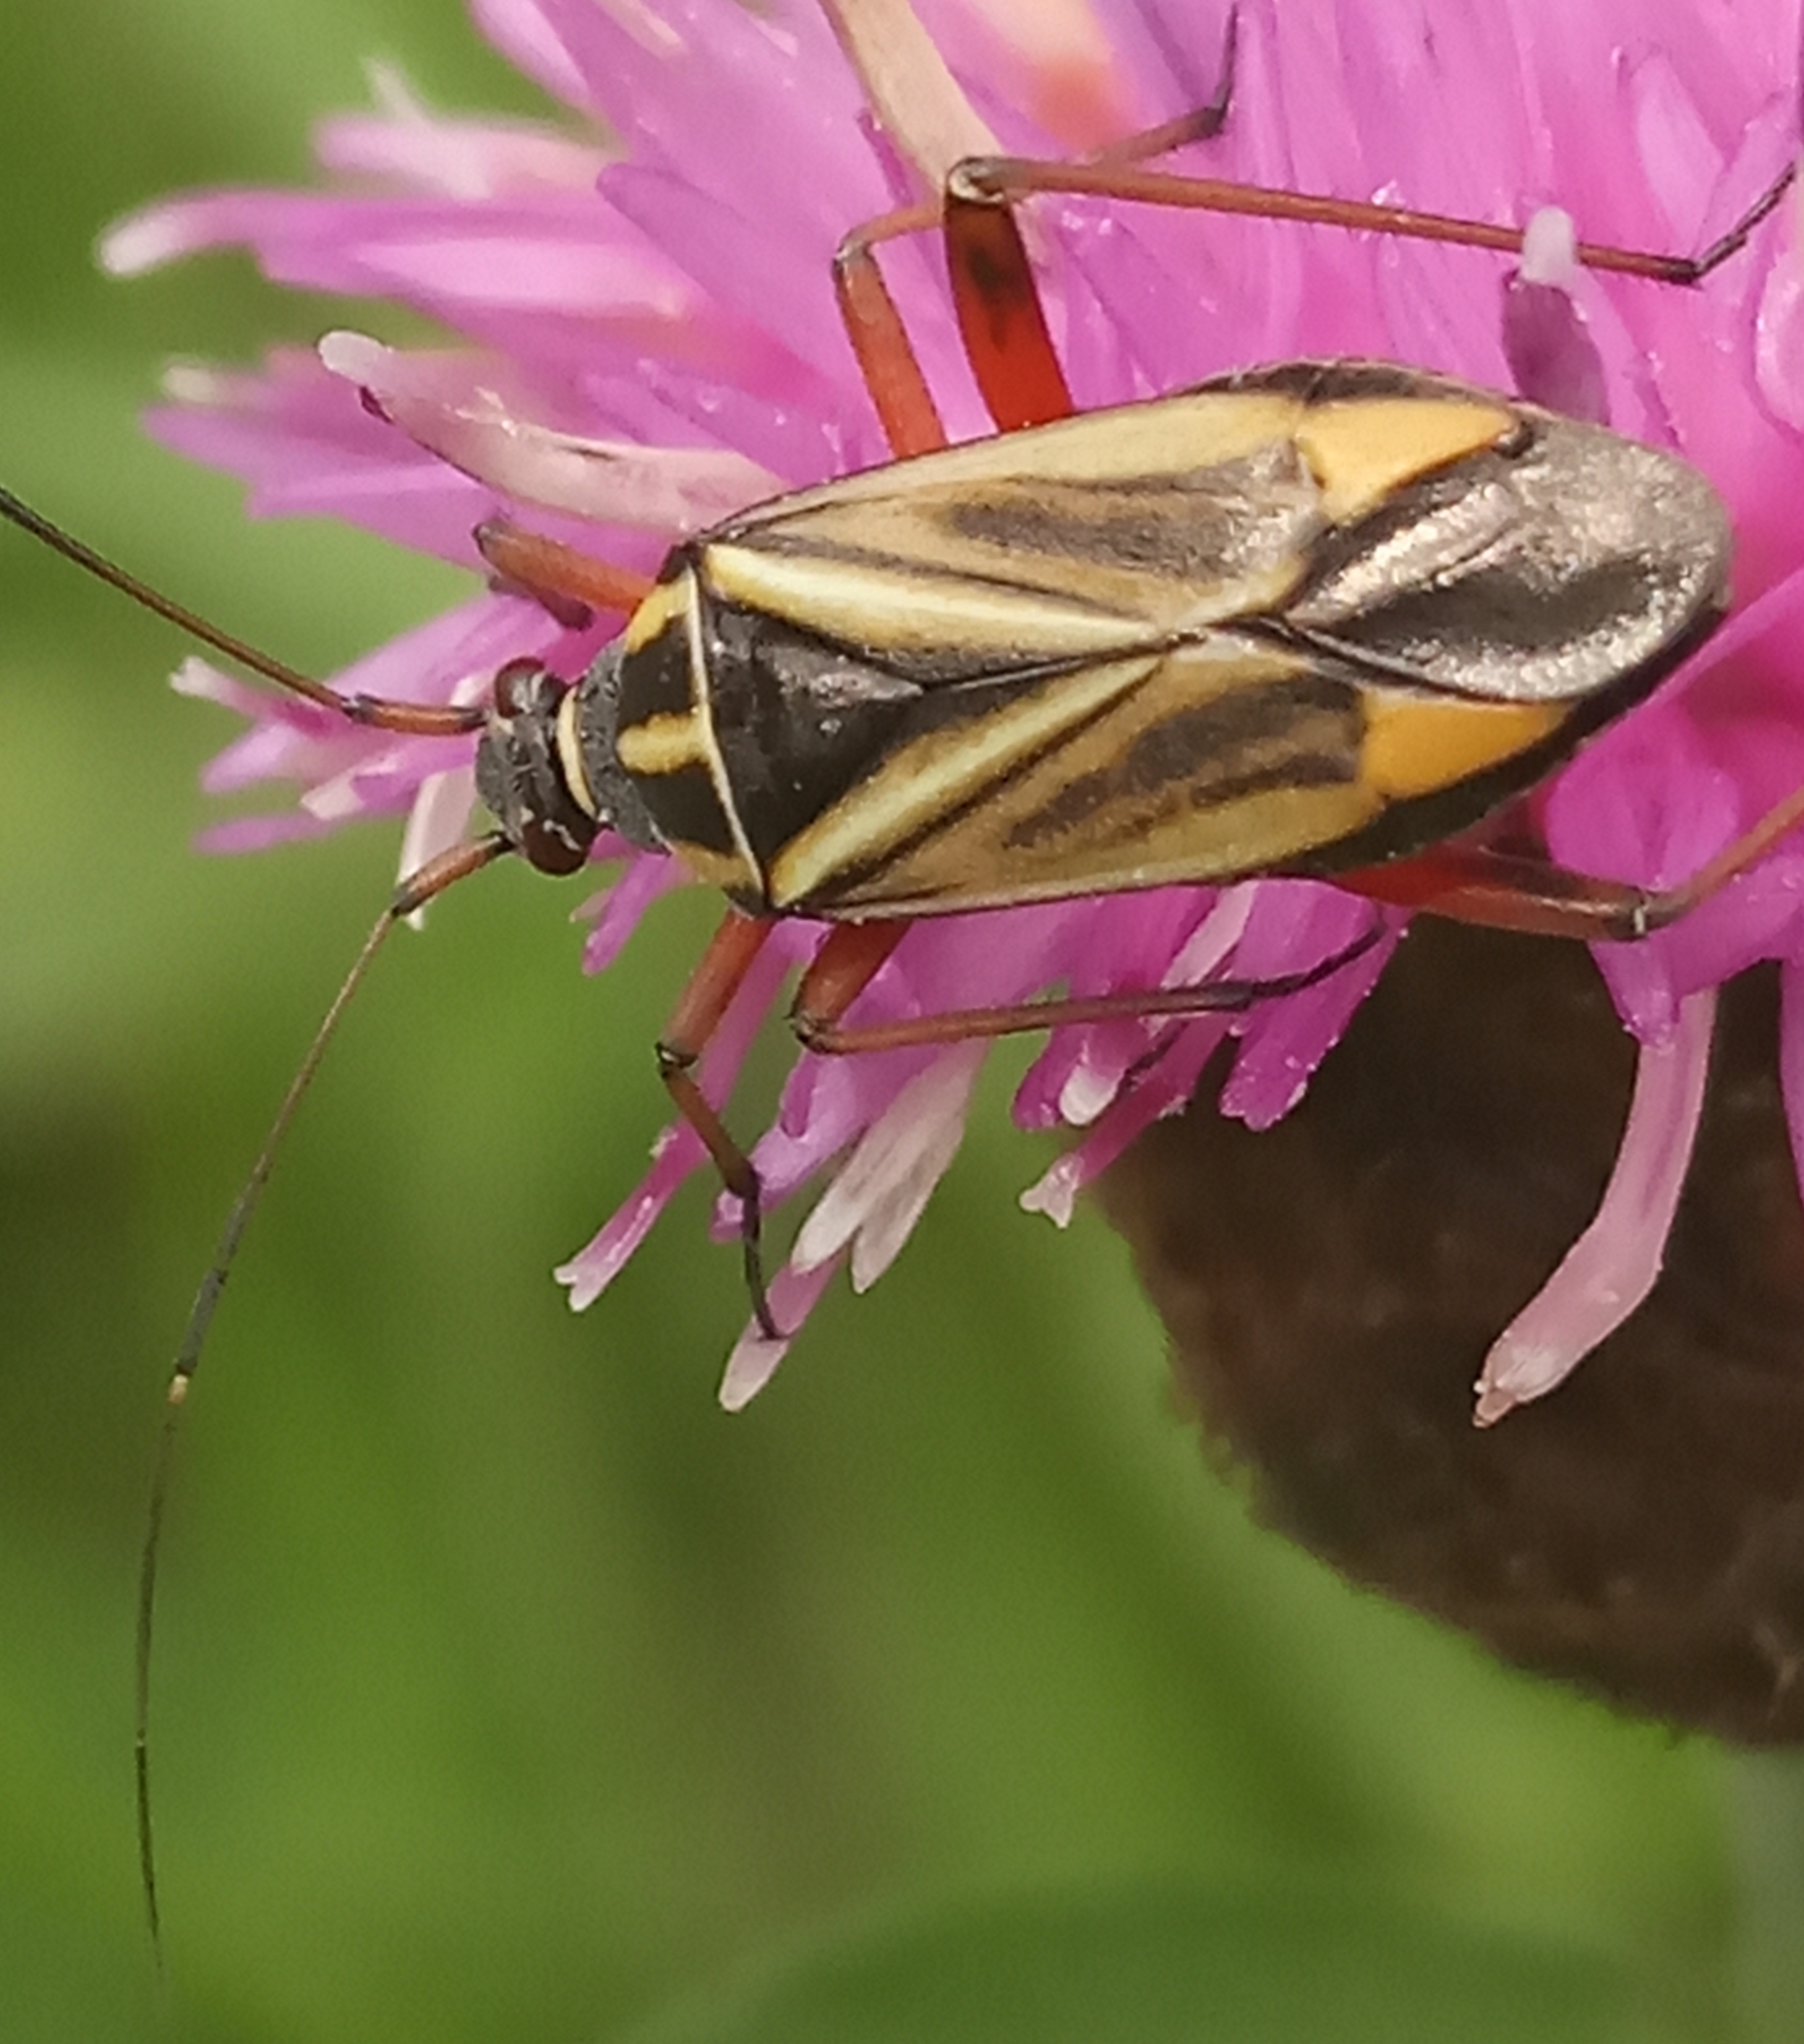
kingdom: Animalia
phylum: Arthropoda
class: Insecta
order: Hemiptera
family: Miridae
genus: Hadrodemus
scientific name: Hadrodemus m-flavum
